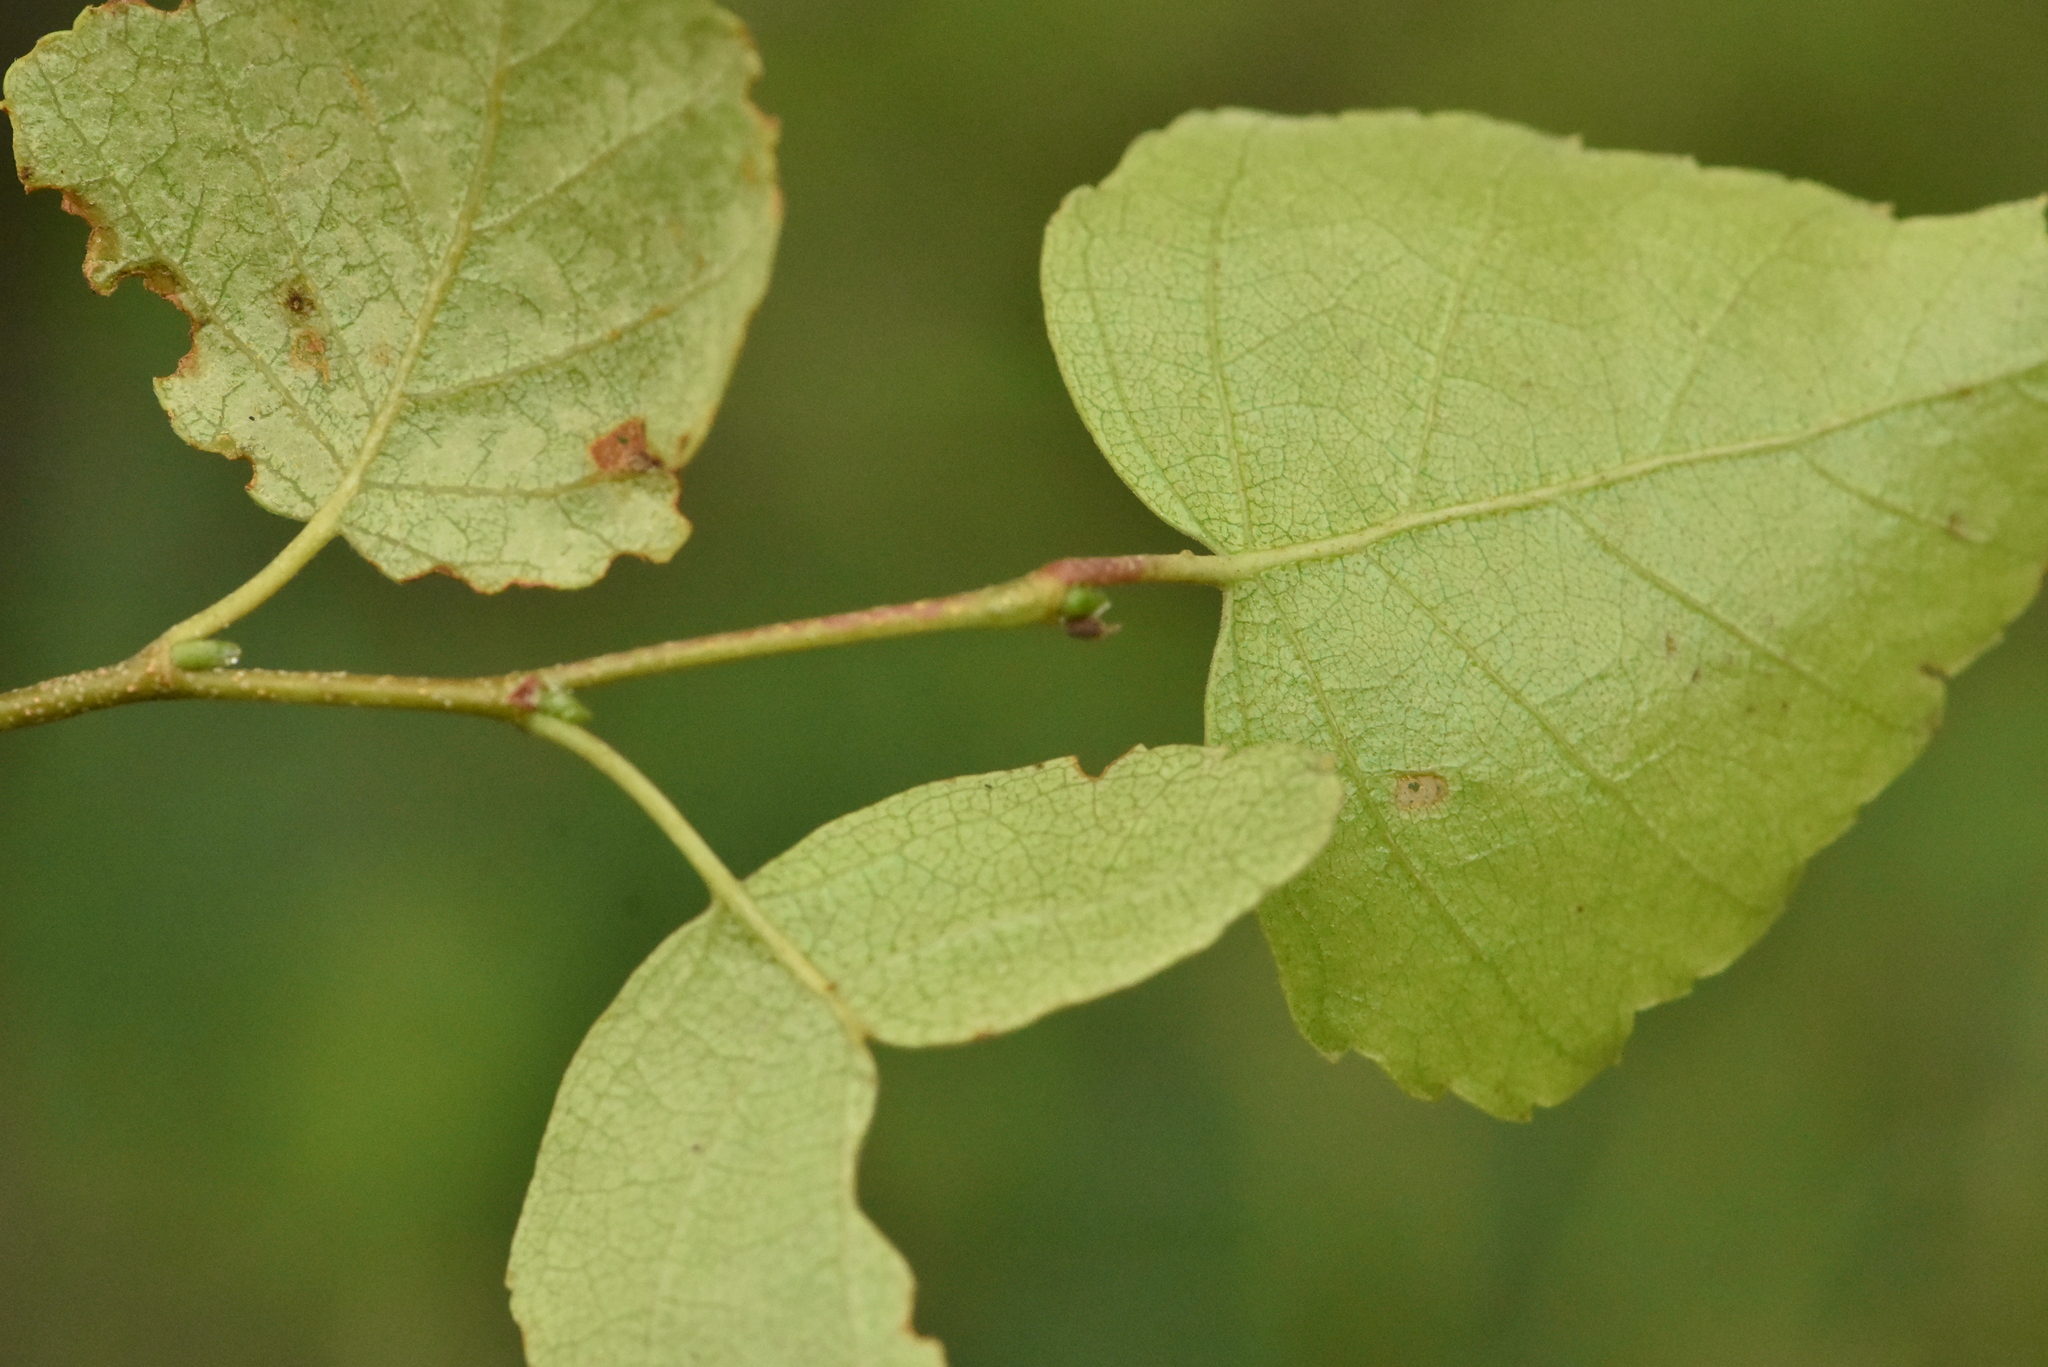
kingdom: Plantae
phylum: Tracheophyta
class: Magnoliopsida
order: Fagales
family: Betulaceae
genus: Betula
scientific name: Betula pendula
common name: Silver birch
